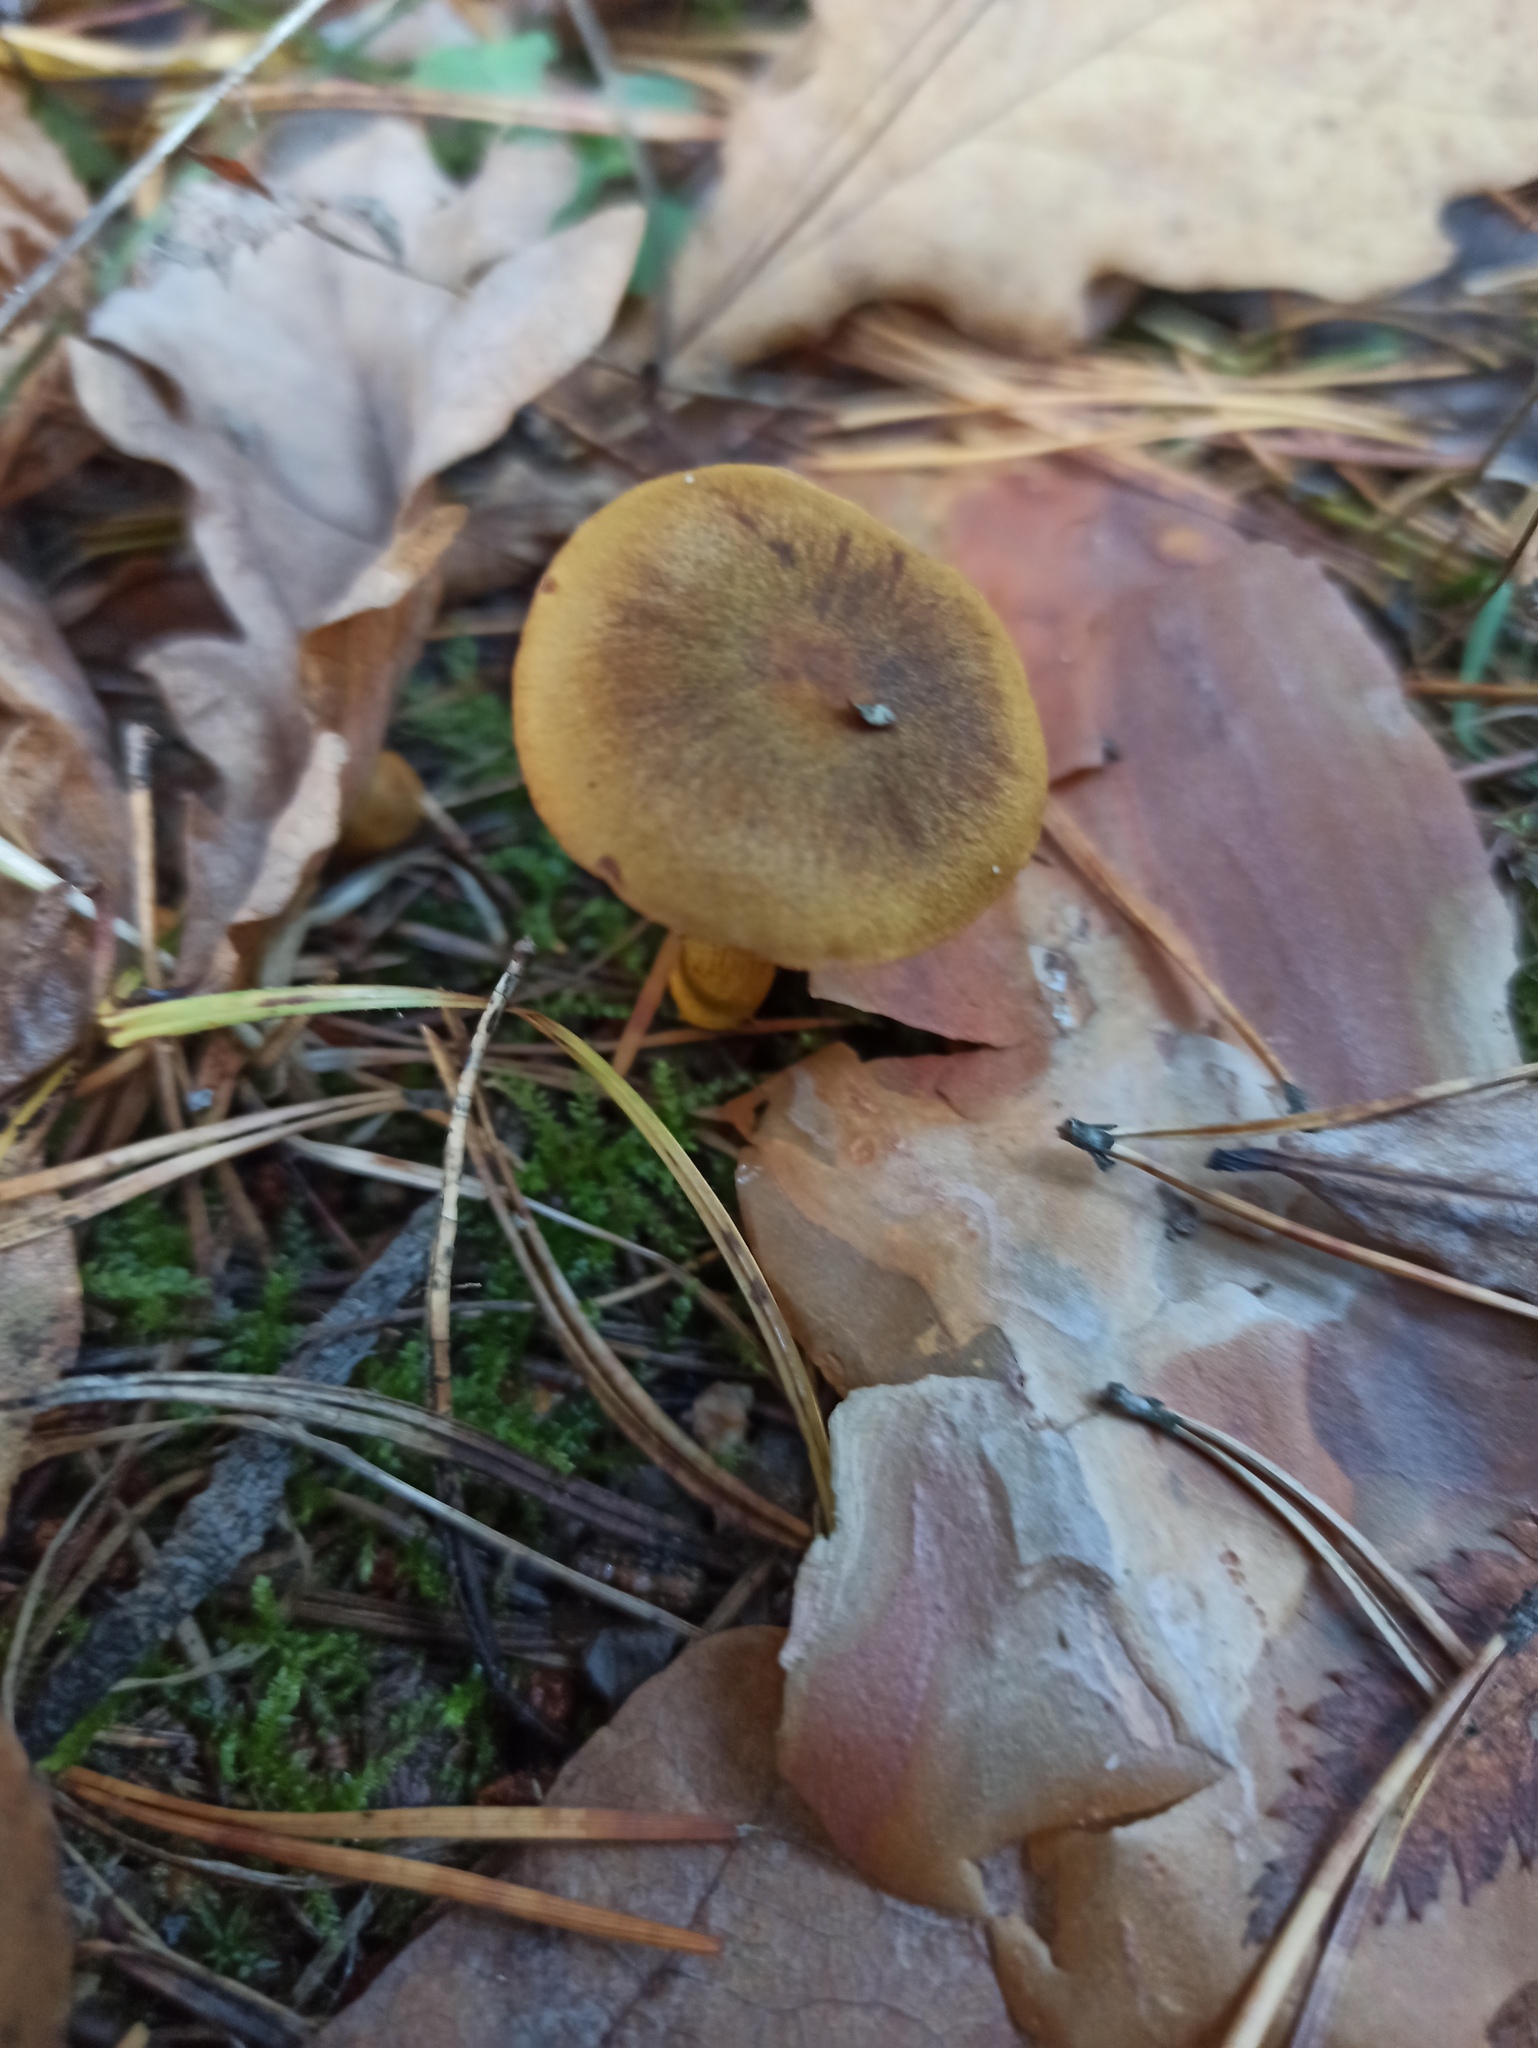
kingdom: Fungi
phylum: Basidiomycota
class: Agaricomycetes
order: Agaricales
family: Cortinariaceae
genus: Cortinarius
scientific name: Cortinarius semisanguineus
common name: Surprise webcap
